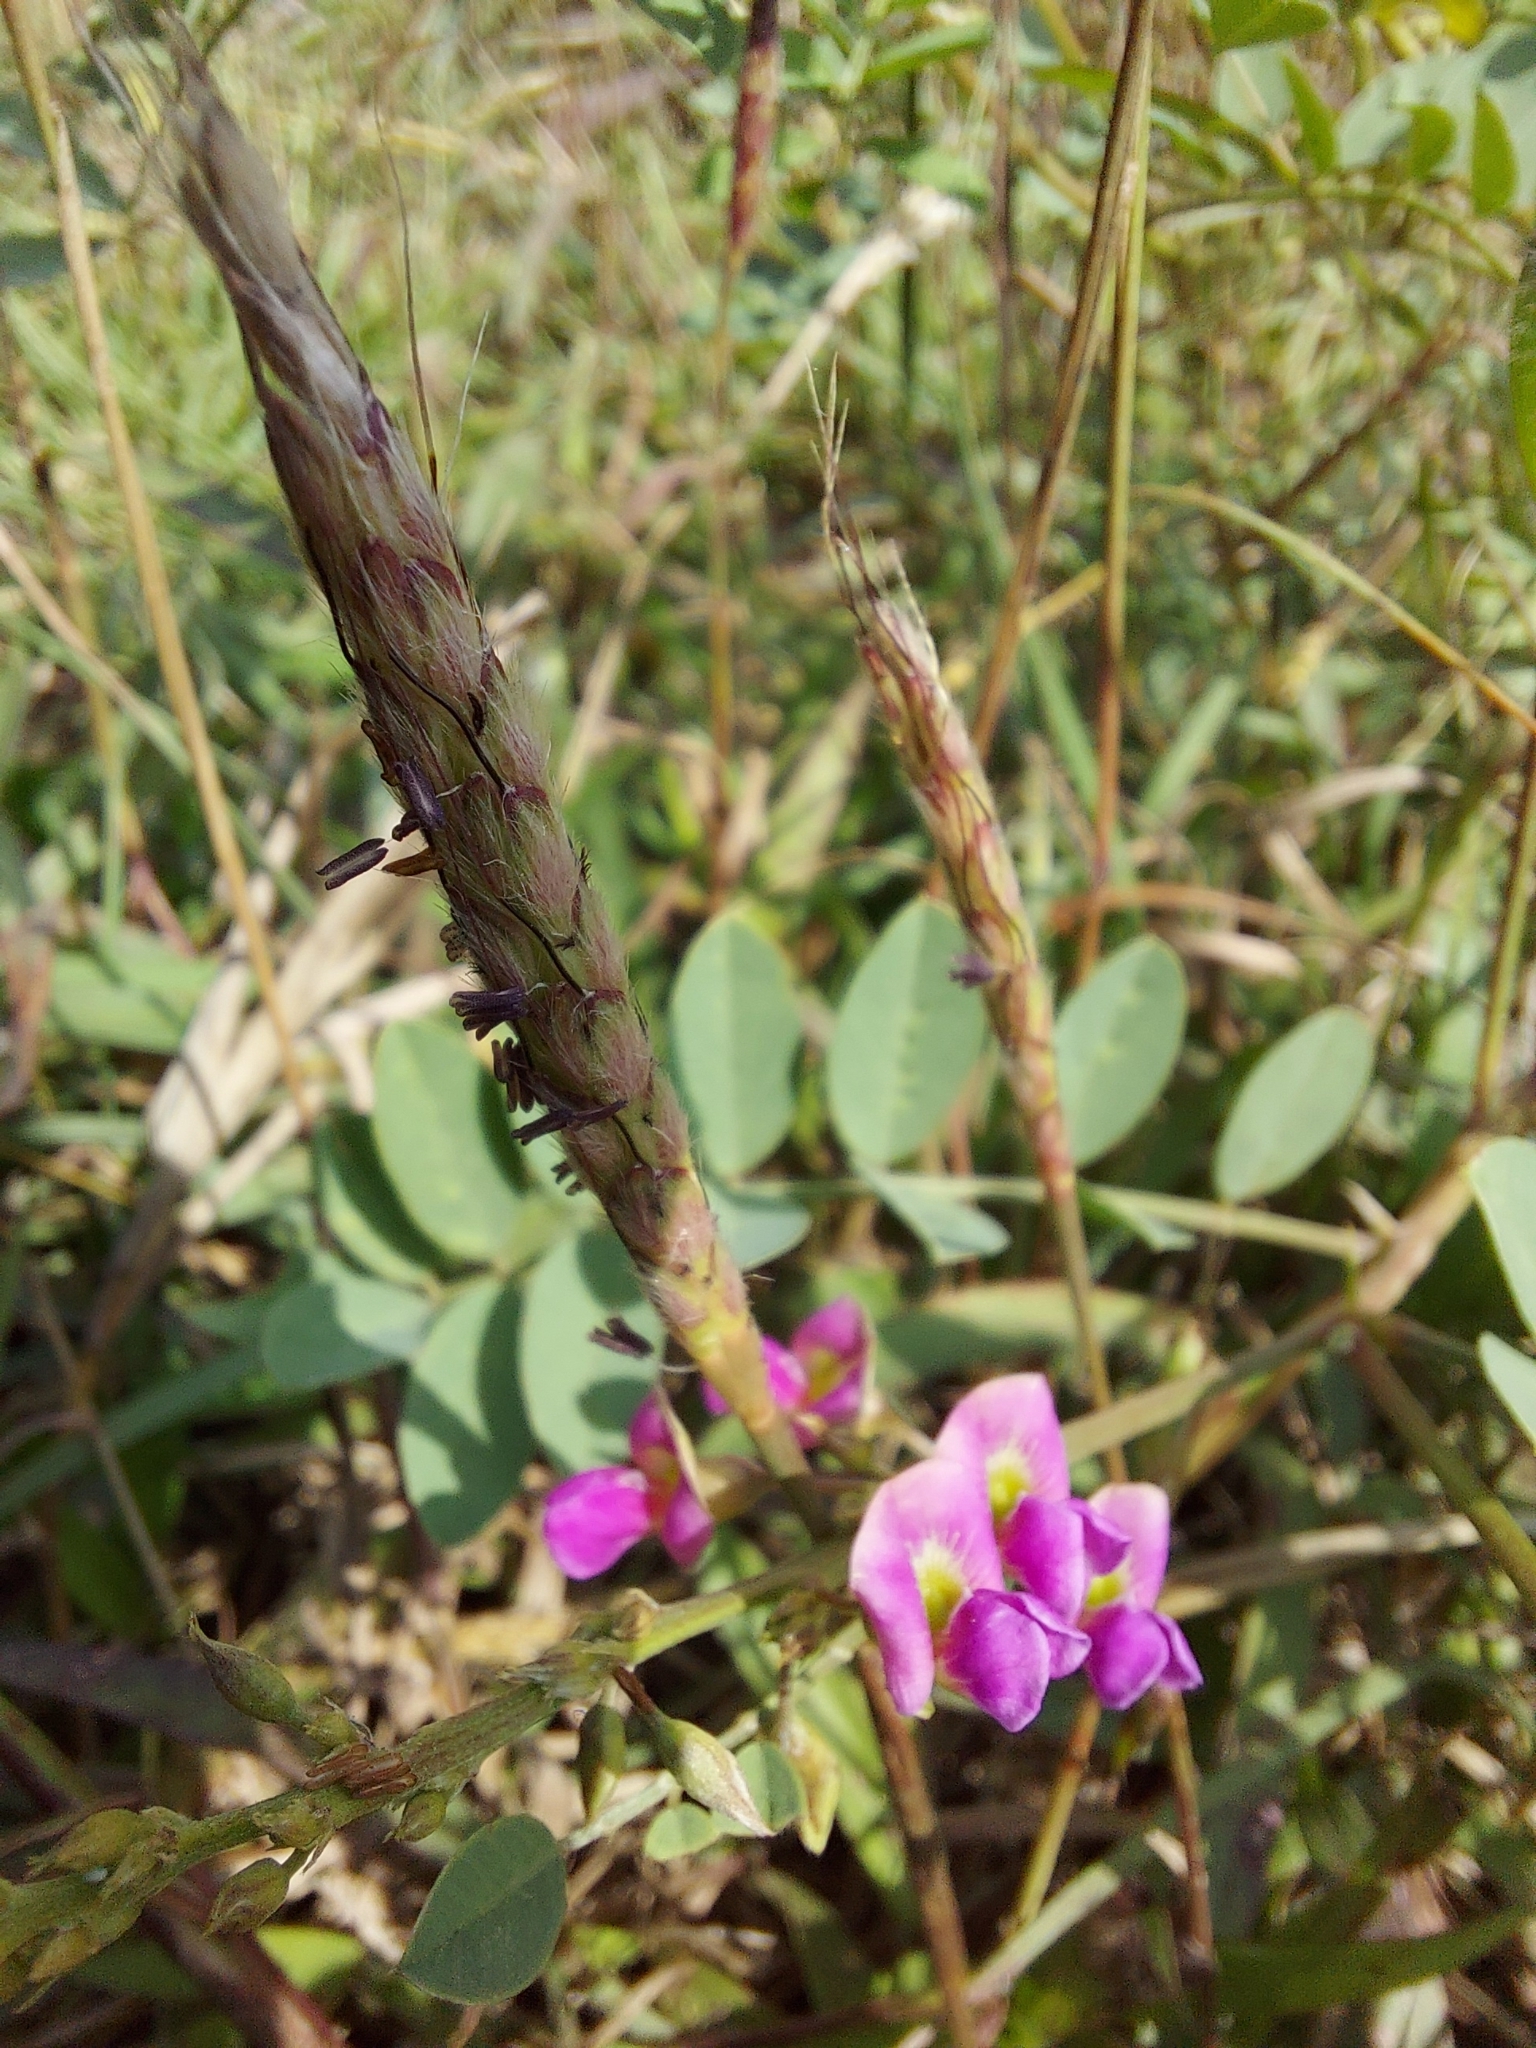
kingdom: Plantae
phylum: Tracheophyta
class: Magnoliopsida
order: Fabales
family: Fabaceae
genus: Tephrosia
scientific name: Tephrosia purpurea
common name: Fishpoison
